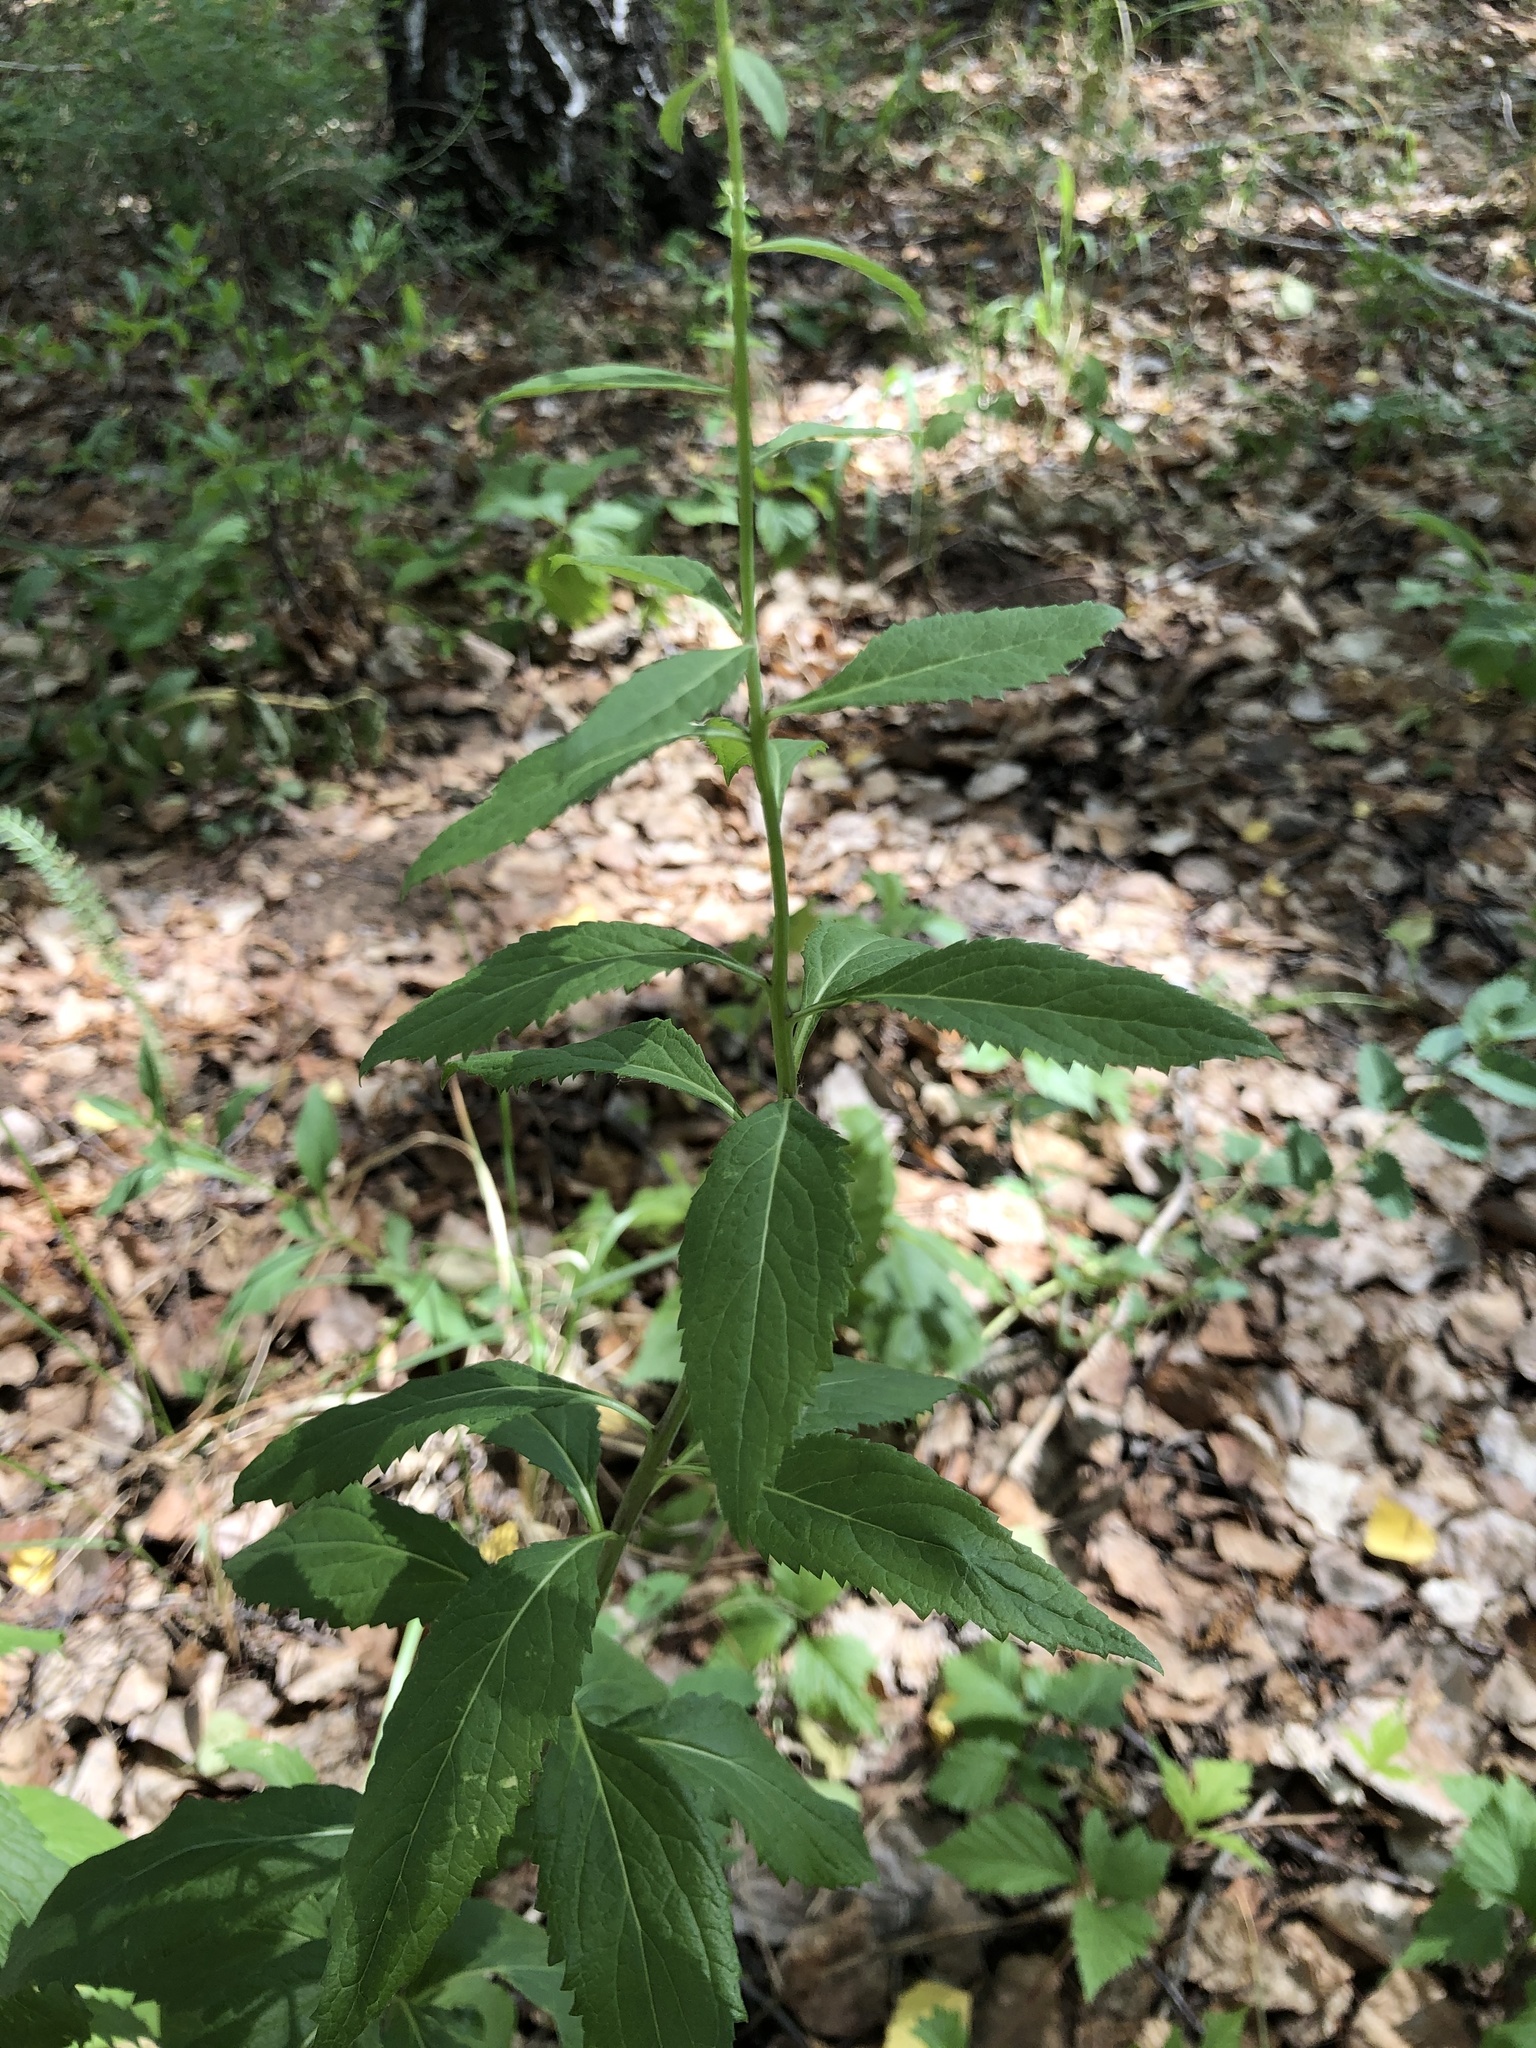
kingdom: Plantae
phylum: Tracheophyta
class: Magnoliopsida
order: Asterales
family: Campanulaceae
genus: Adenophora
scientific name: Adenophora liliifolia
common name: Lilyleaf ladybells
